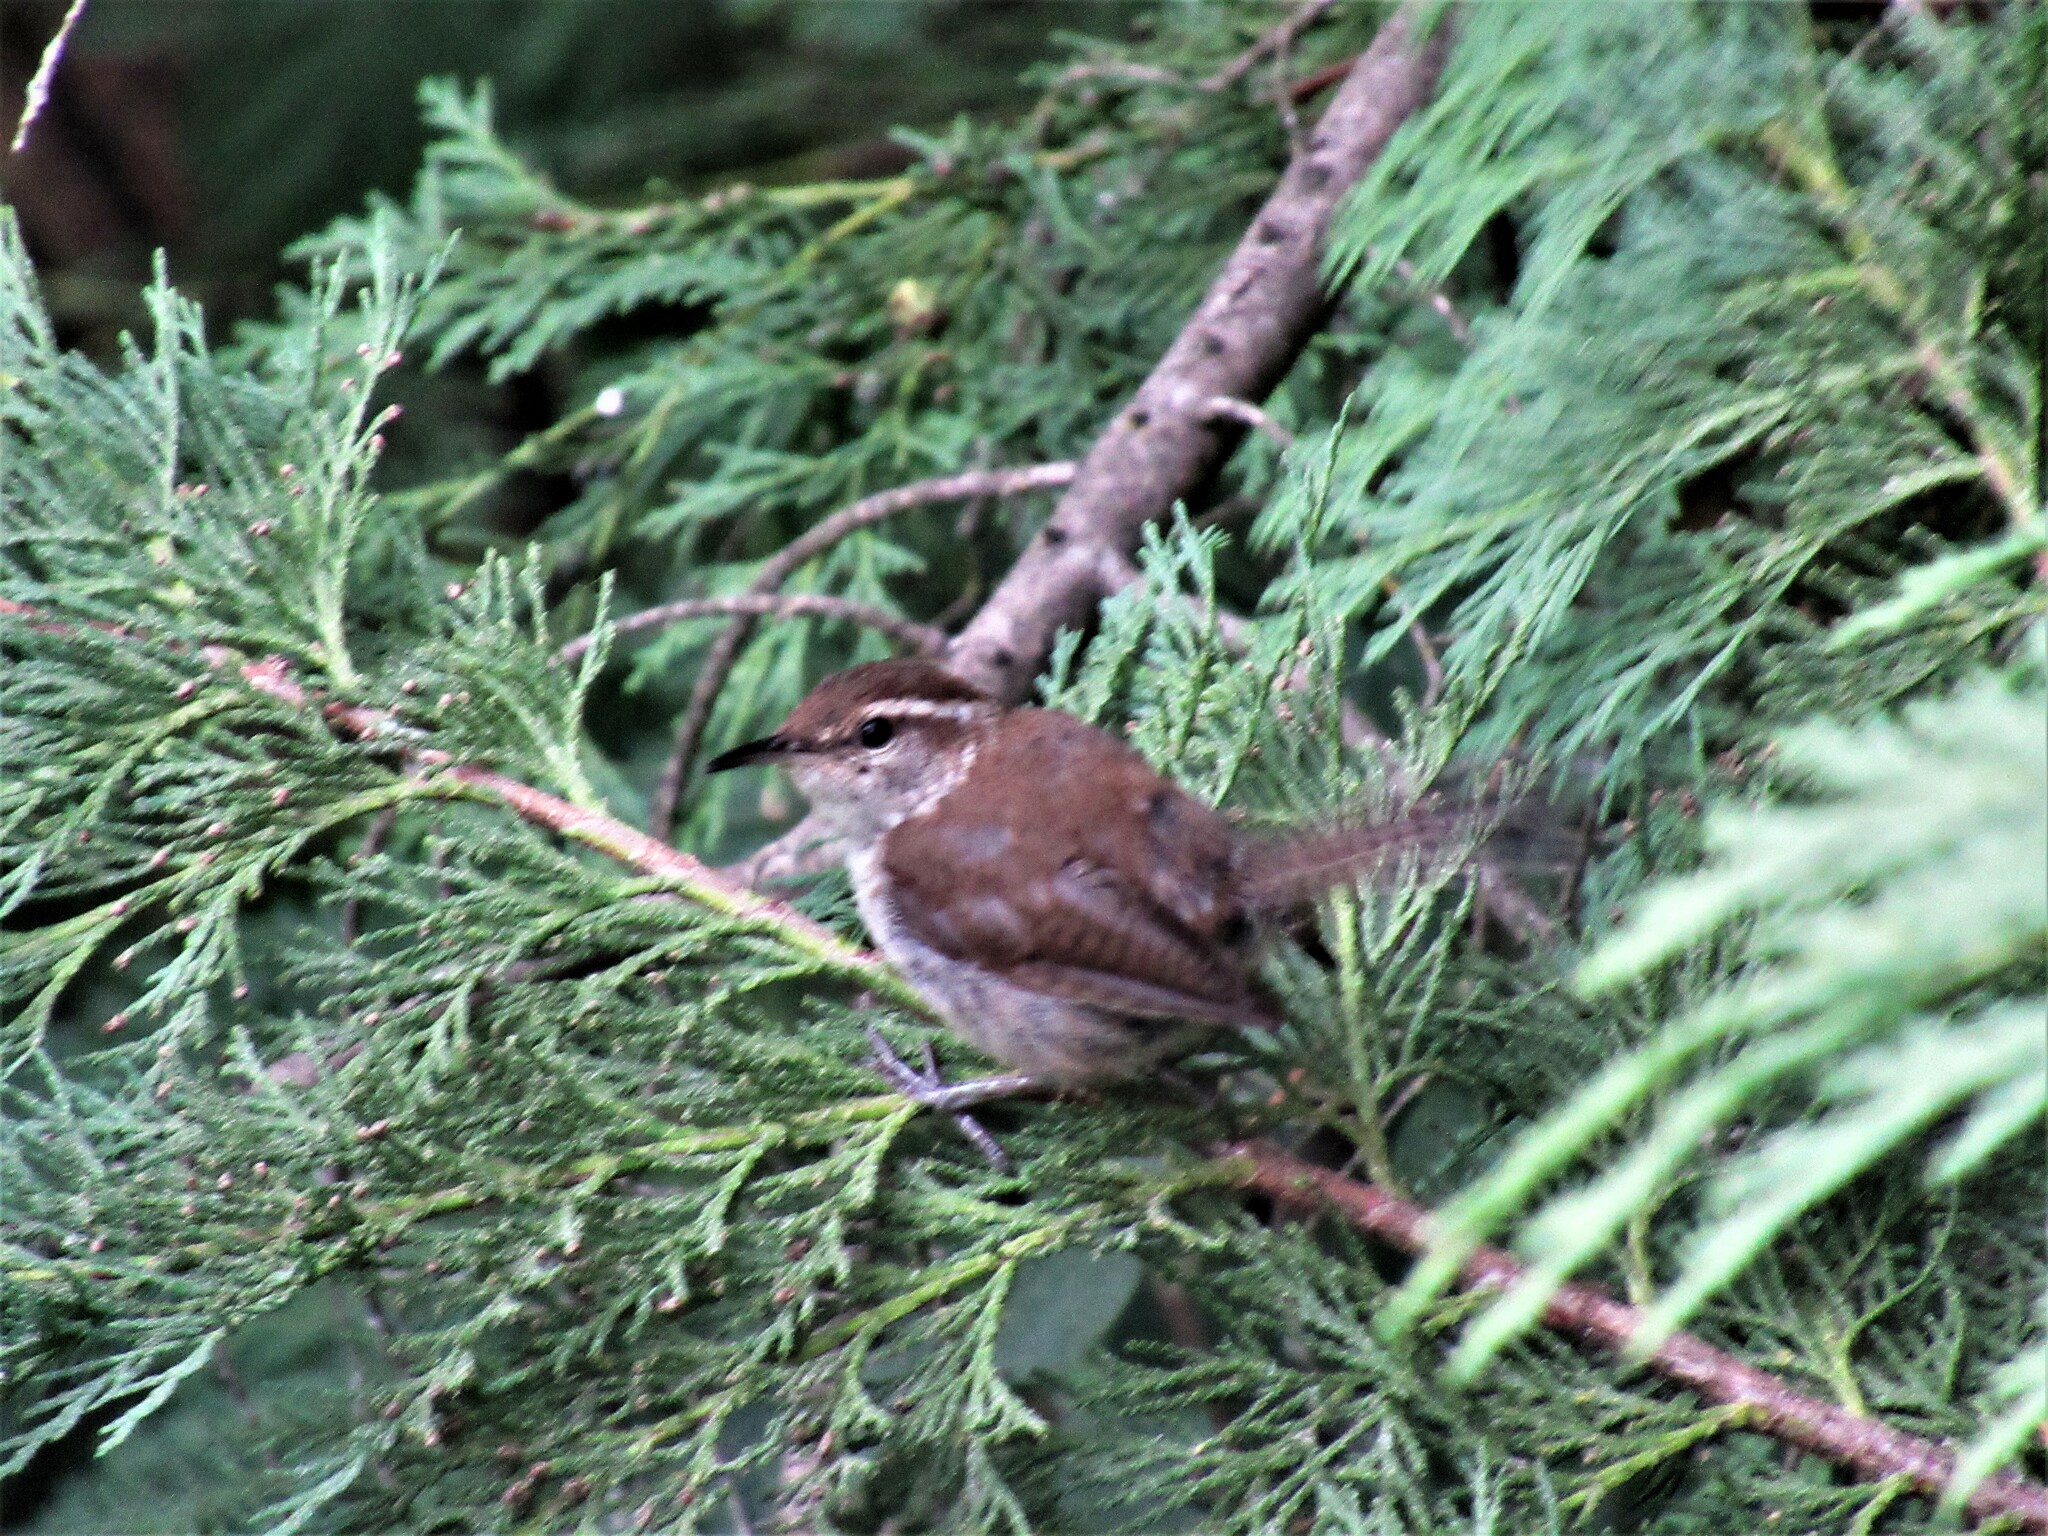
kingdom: Animalia
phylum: Chordata
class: Aves
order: Passeriformes
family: Troglodytidae
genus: Thryomanes
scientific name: Thryomanes bewickii
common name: Bewick's wren
